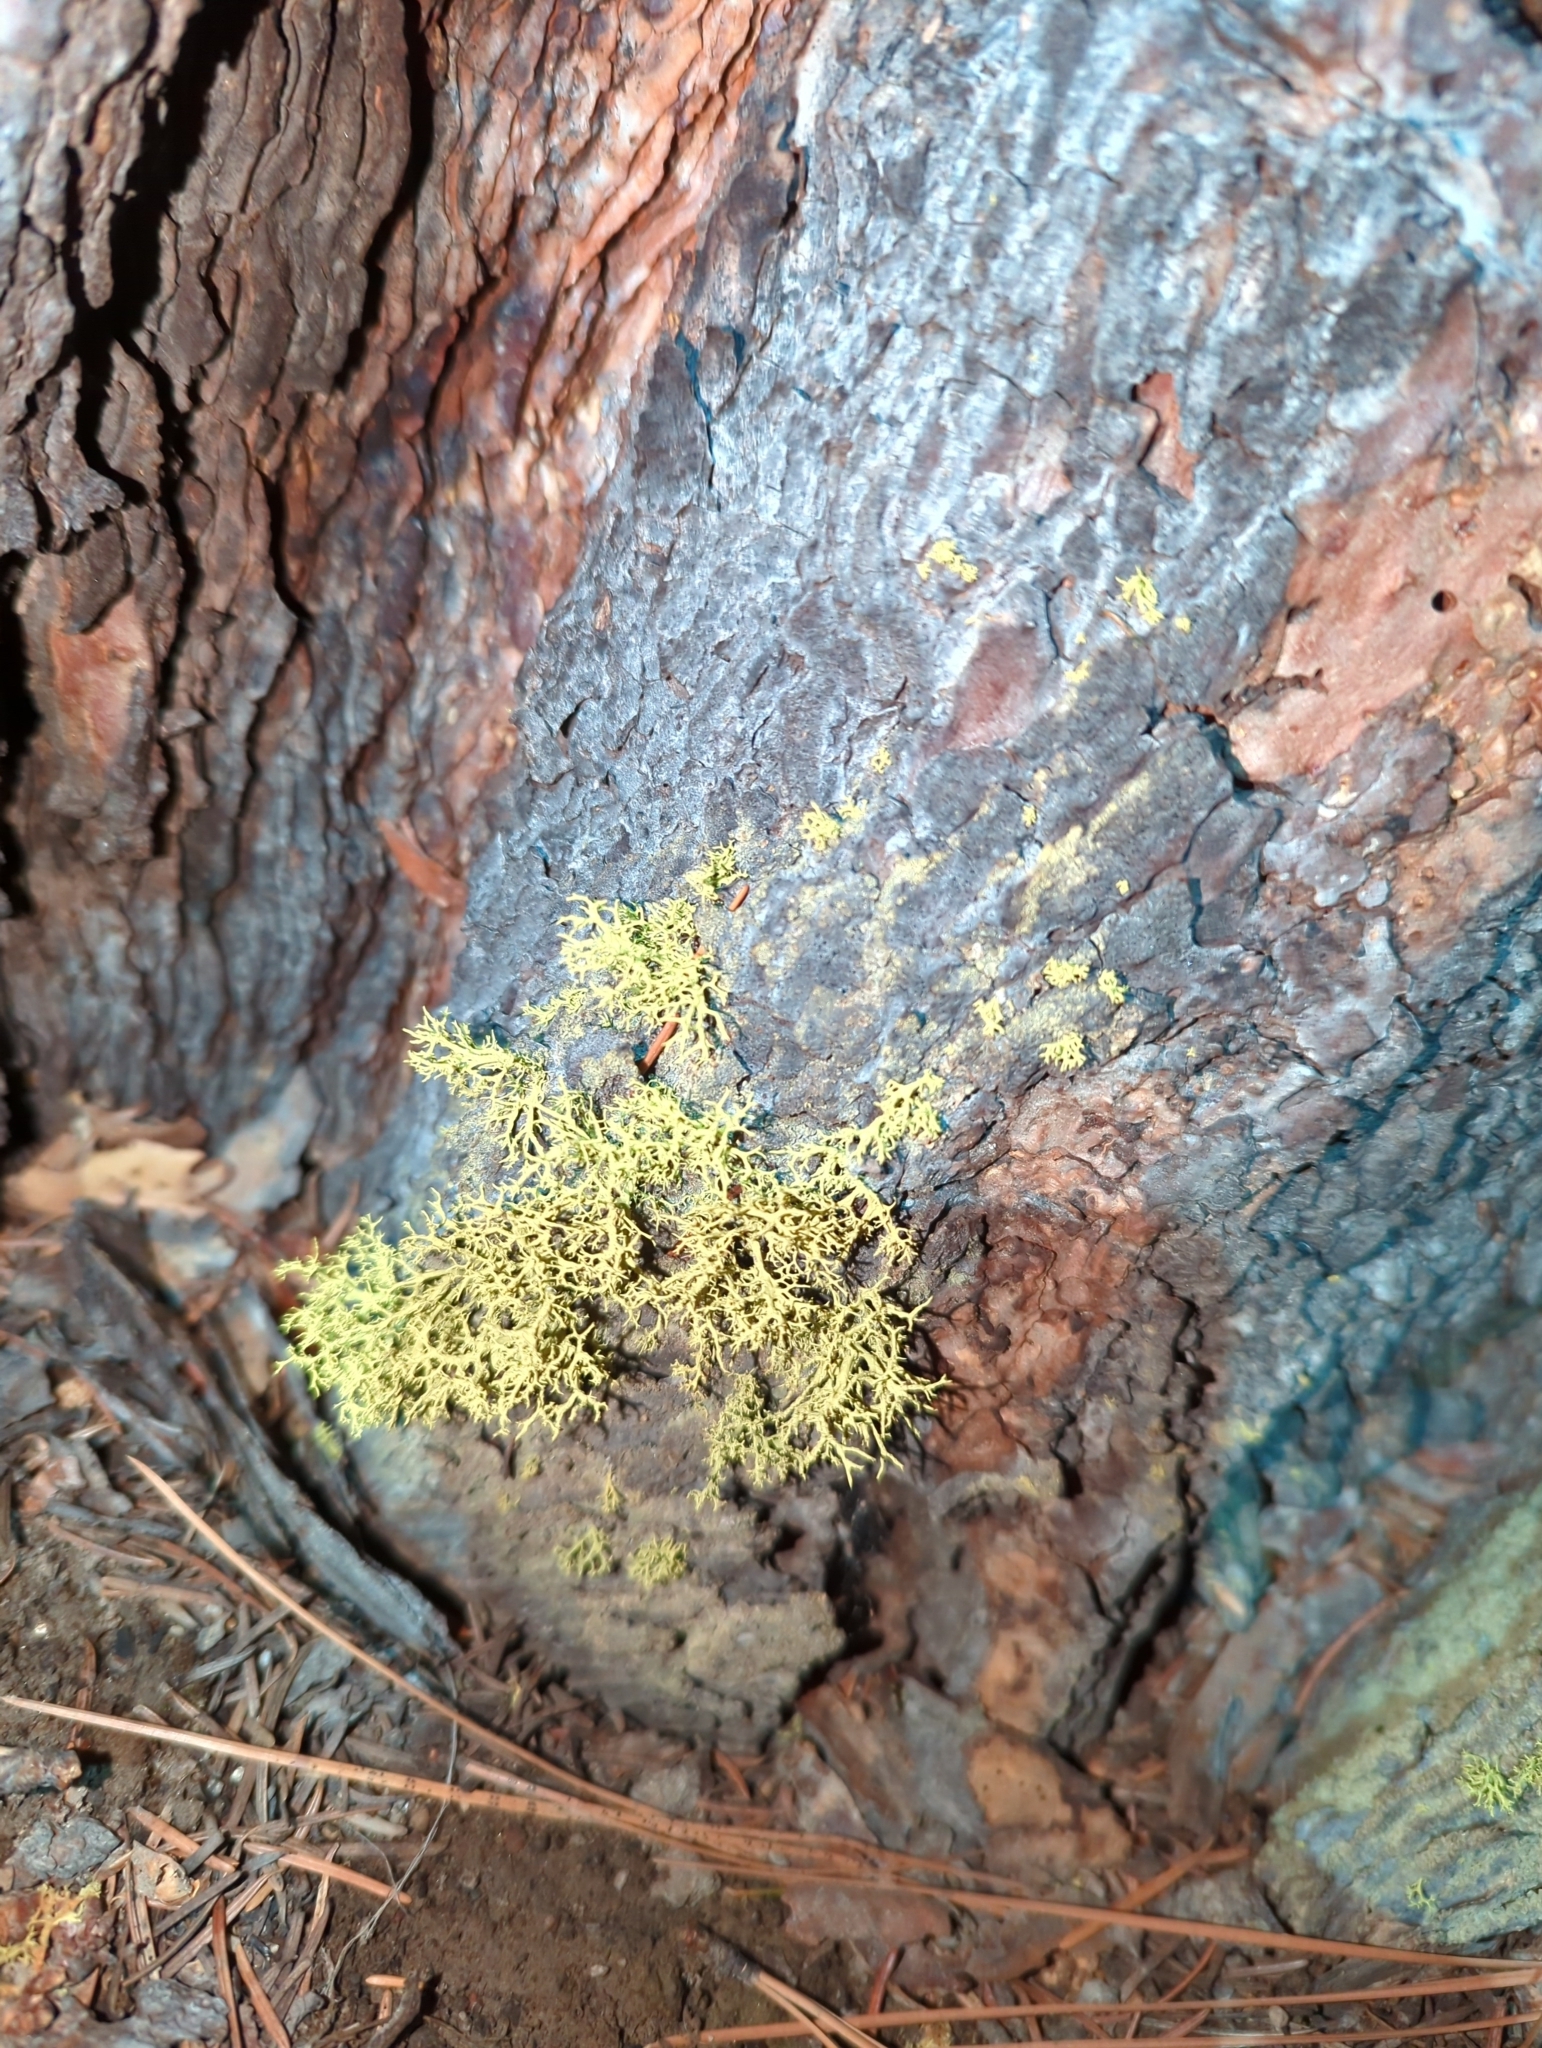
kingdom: Fungi
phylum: Ascomycota
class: Lecanoromycetes
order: Lecanorales
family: Parmeliaceae
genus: Letharia
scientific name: Letharia vulpina
